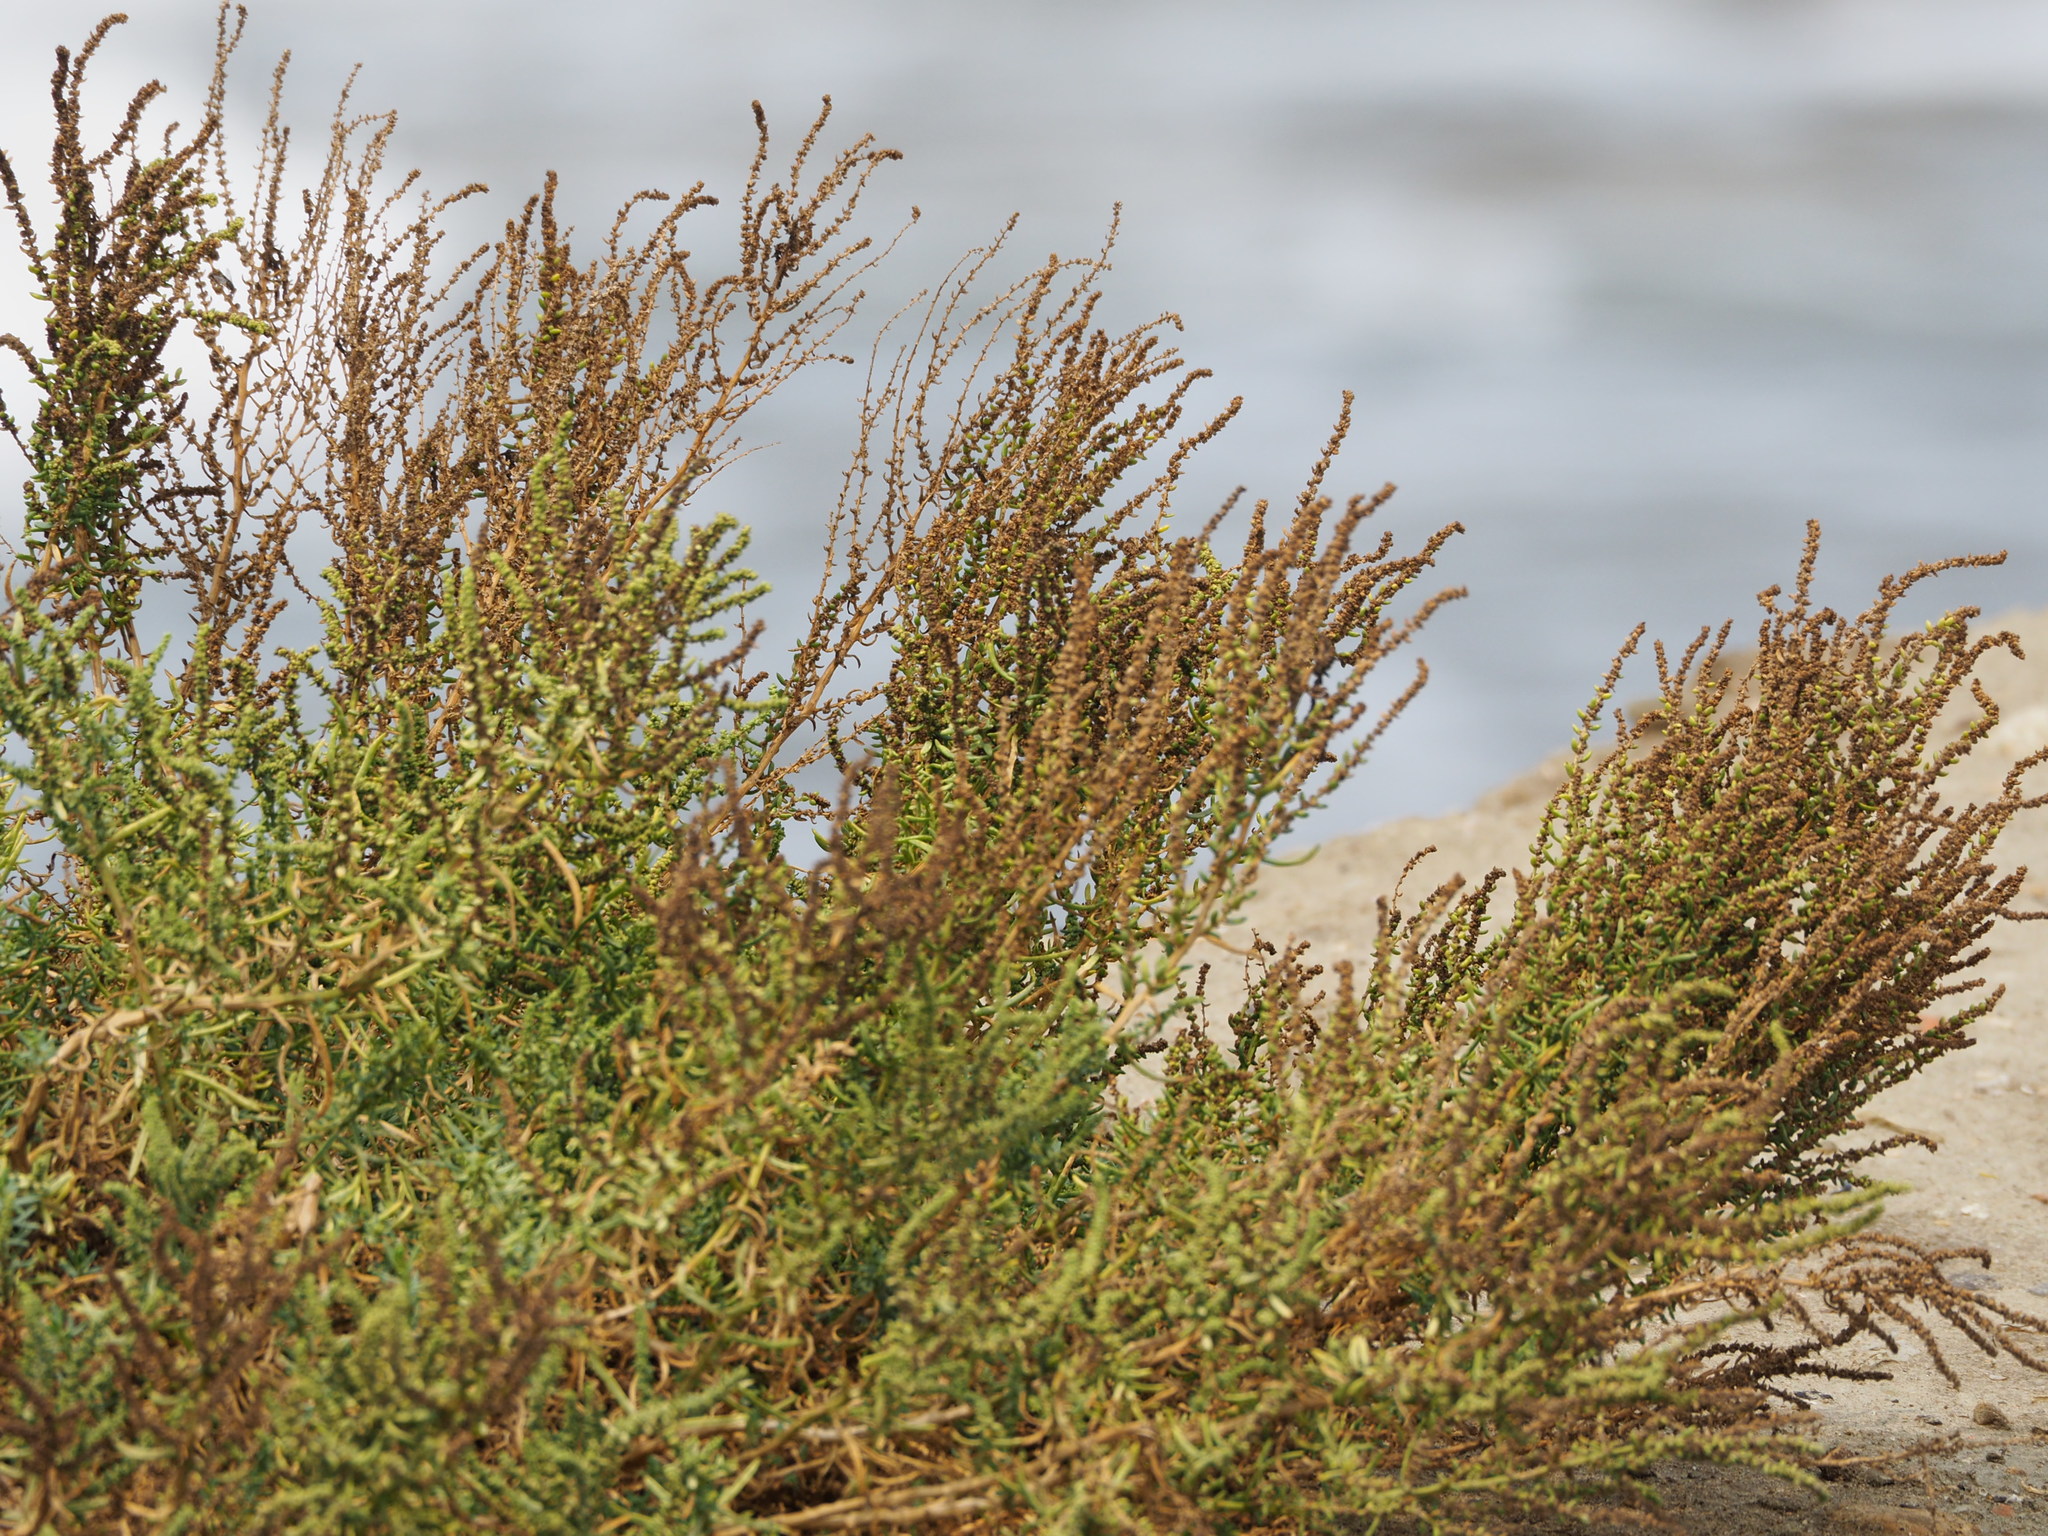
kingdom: Plantae
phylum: Tracheophyta
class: Magnoliopsida
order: Caryophyllales
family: Amaranthaceae
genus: Suaeda
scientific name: Suaeda maritima
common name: Annual sea-blite
